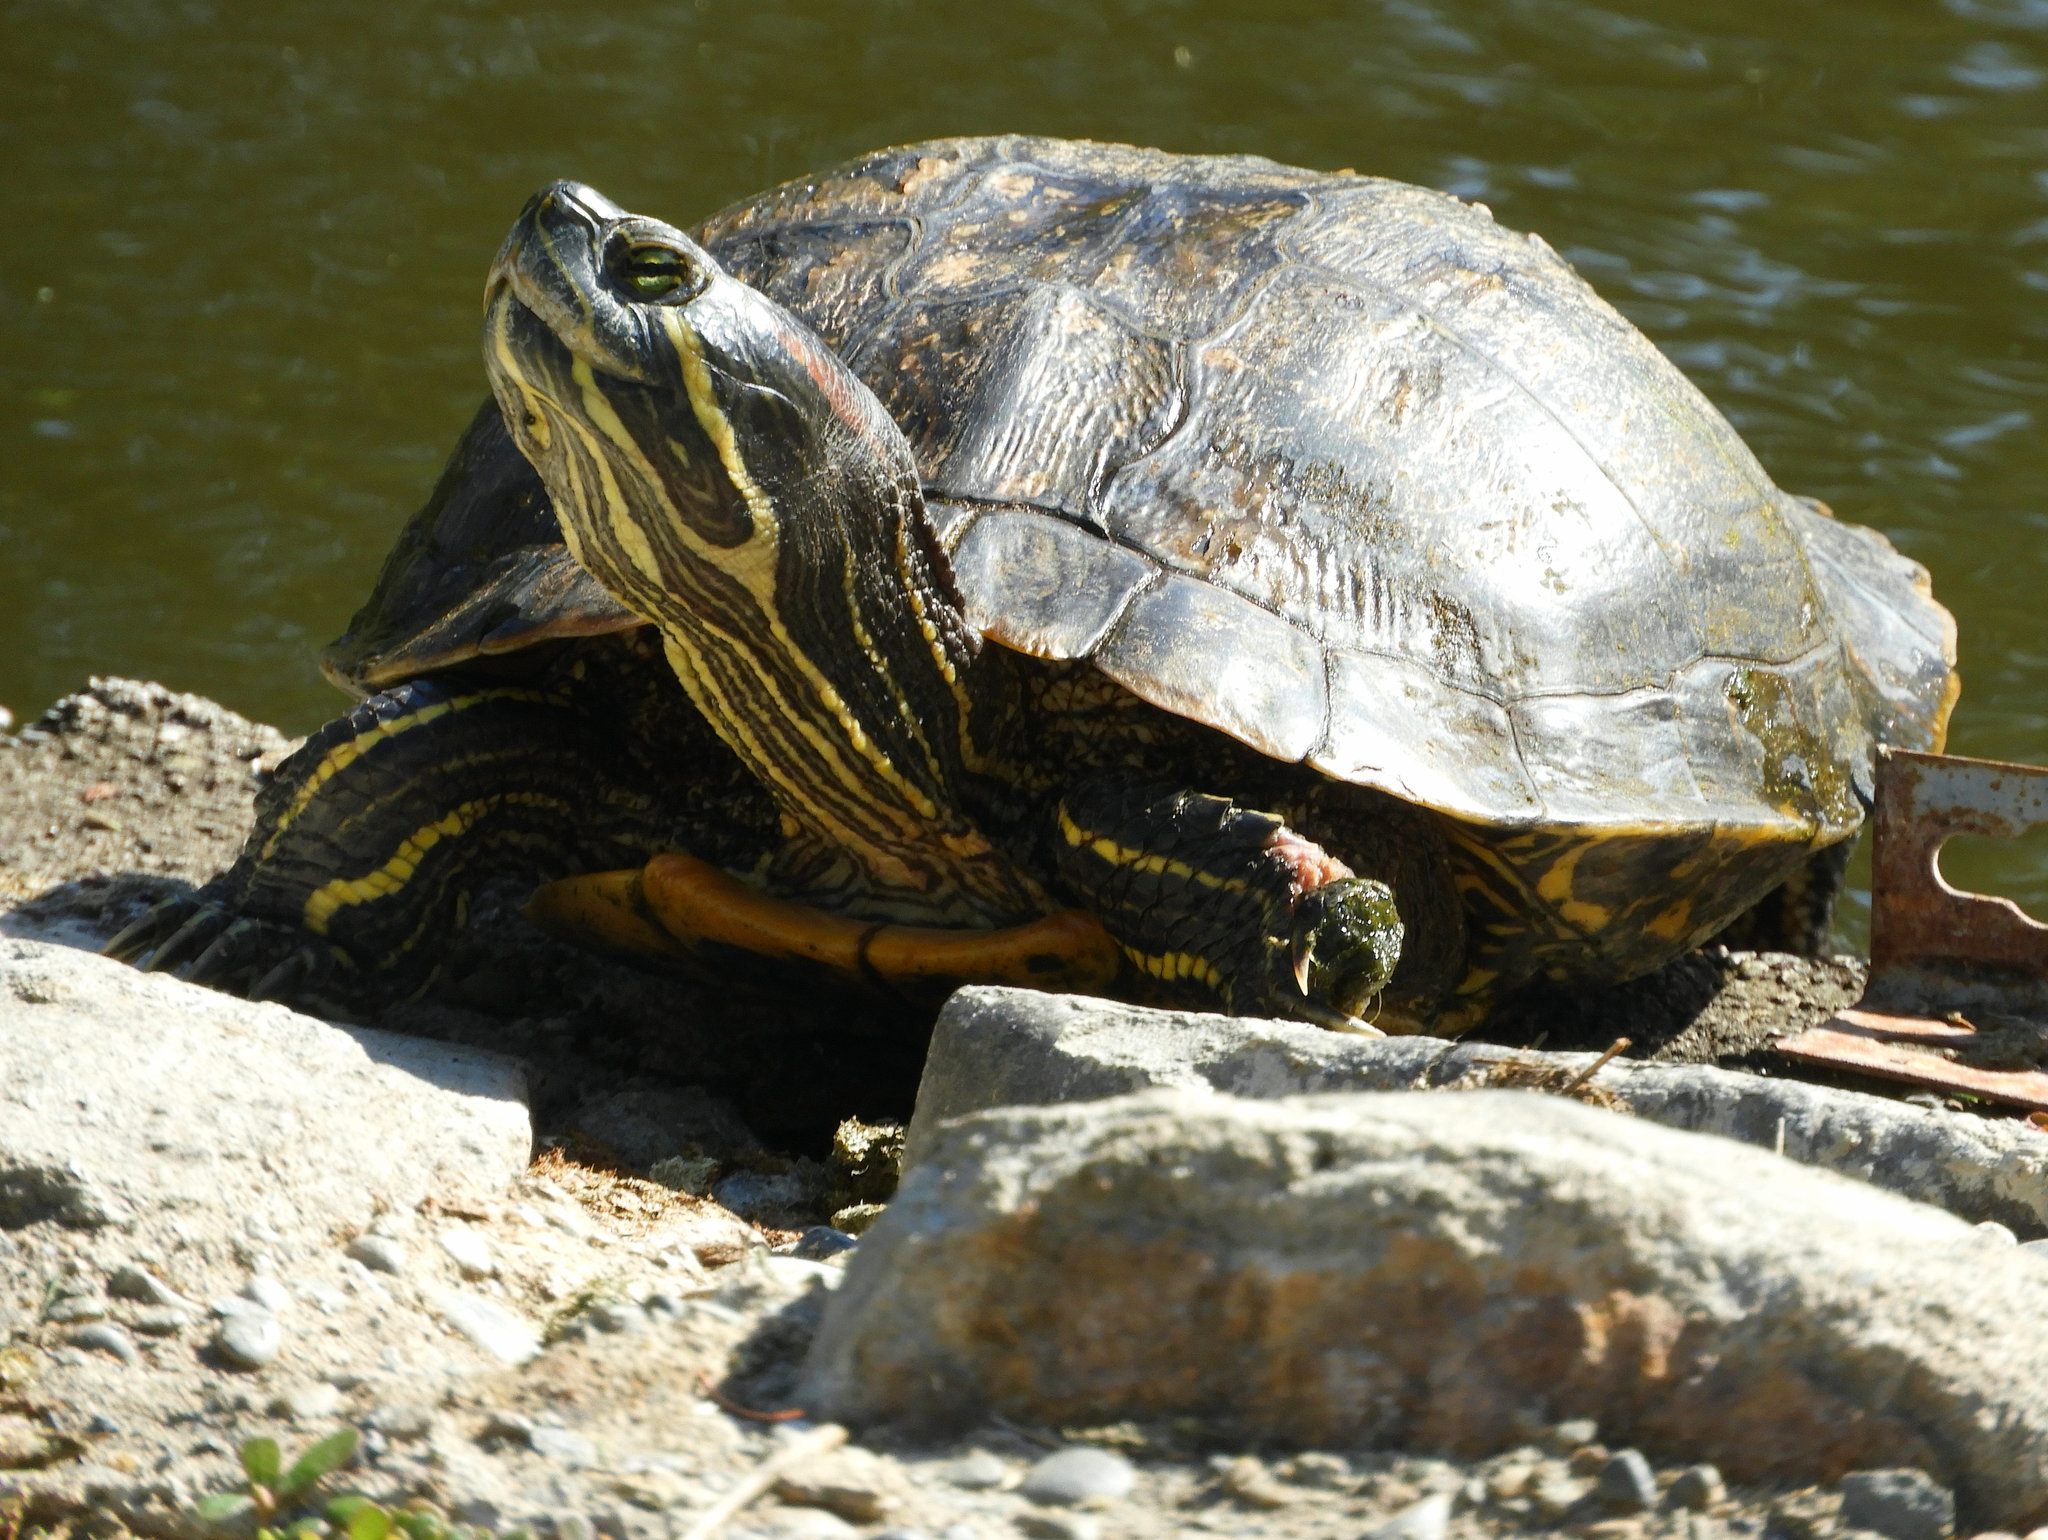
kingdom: Animalia
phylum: Chordata
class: Testudines
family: Emydidae
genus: Trachemys
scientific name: Trachemys scripta
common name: Slider
